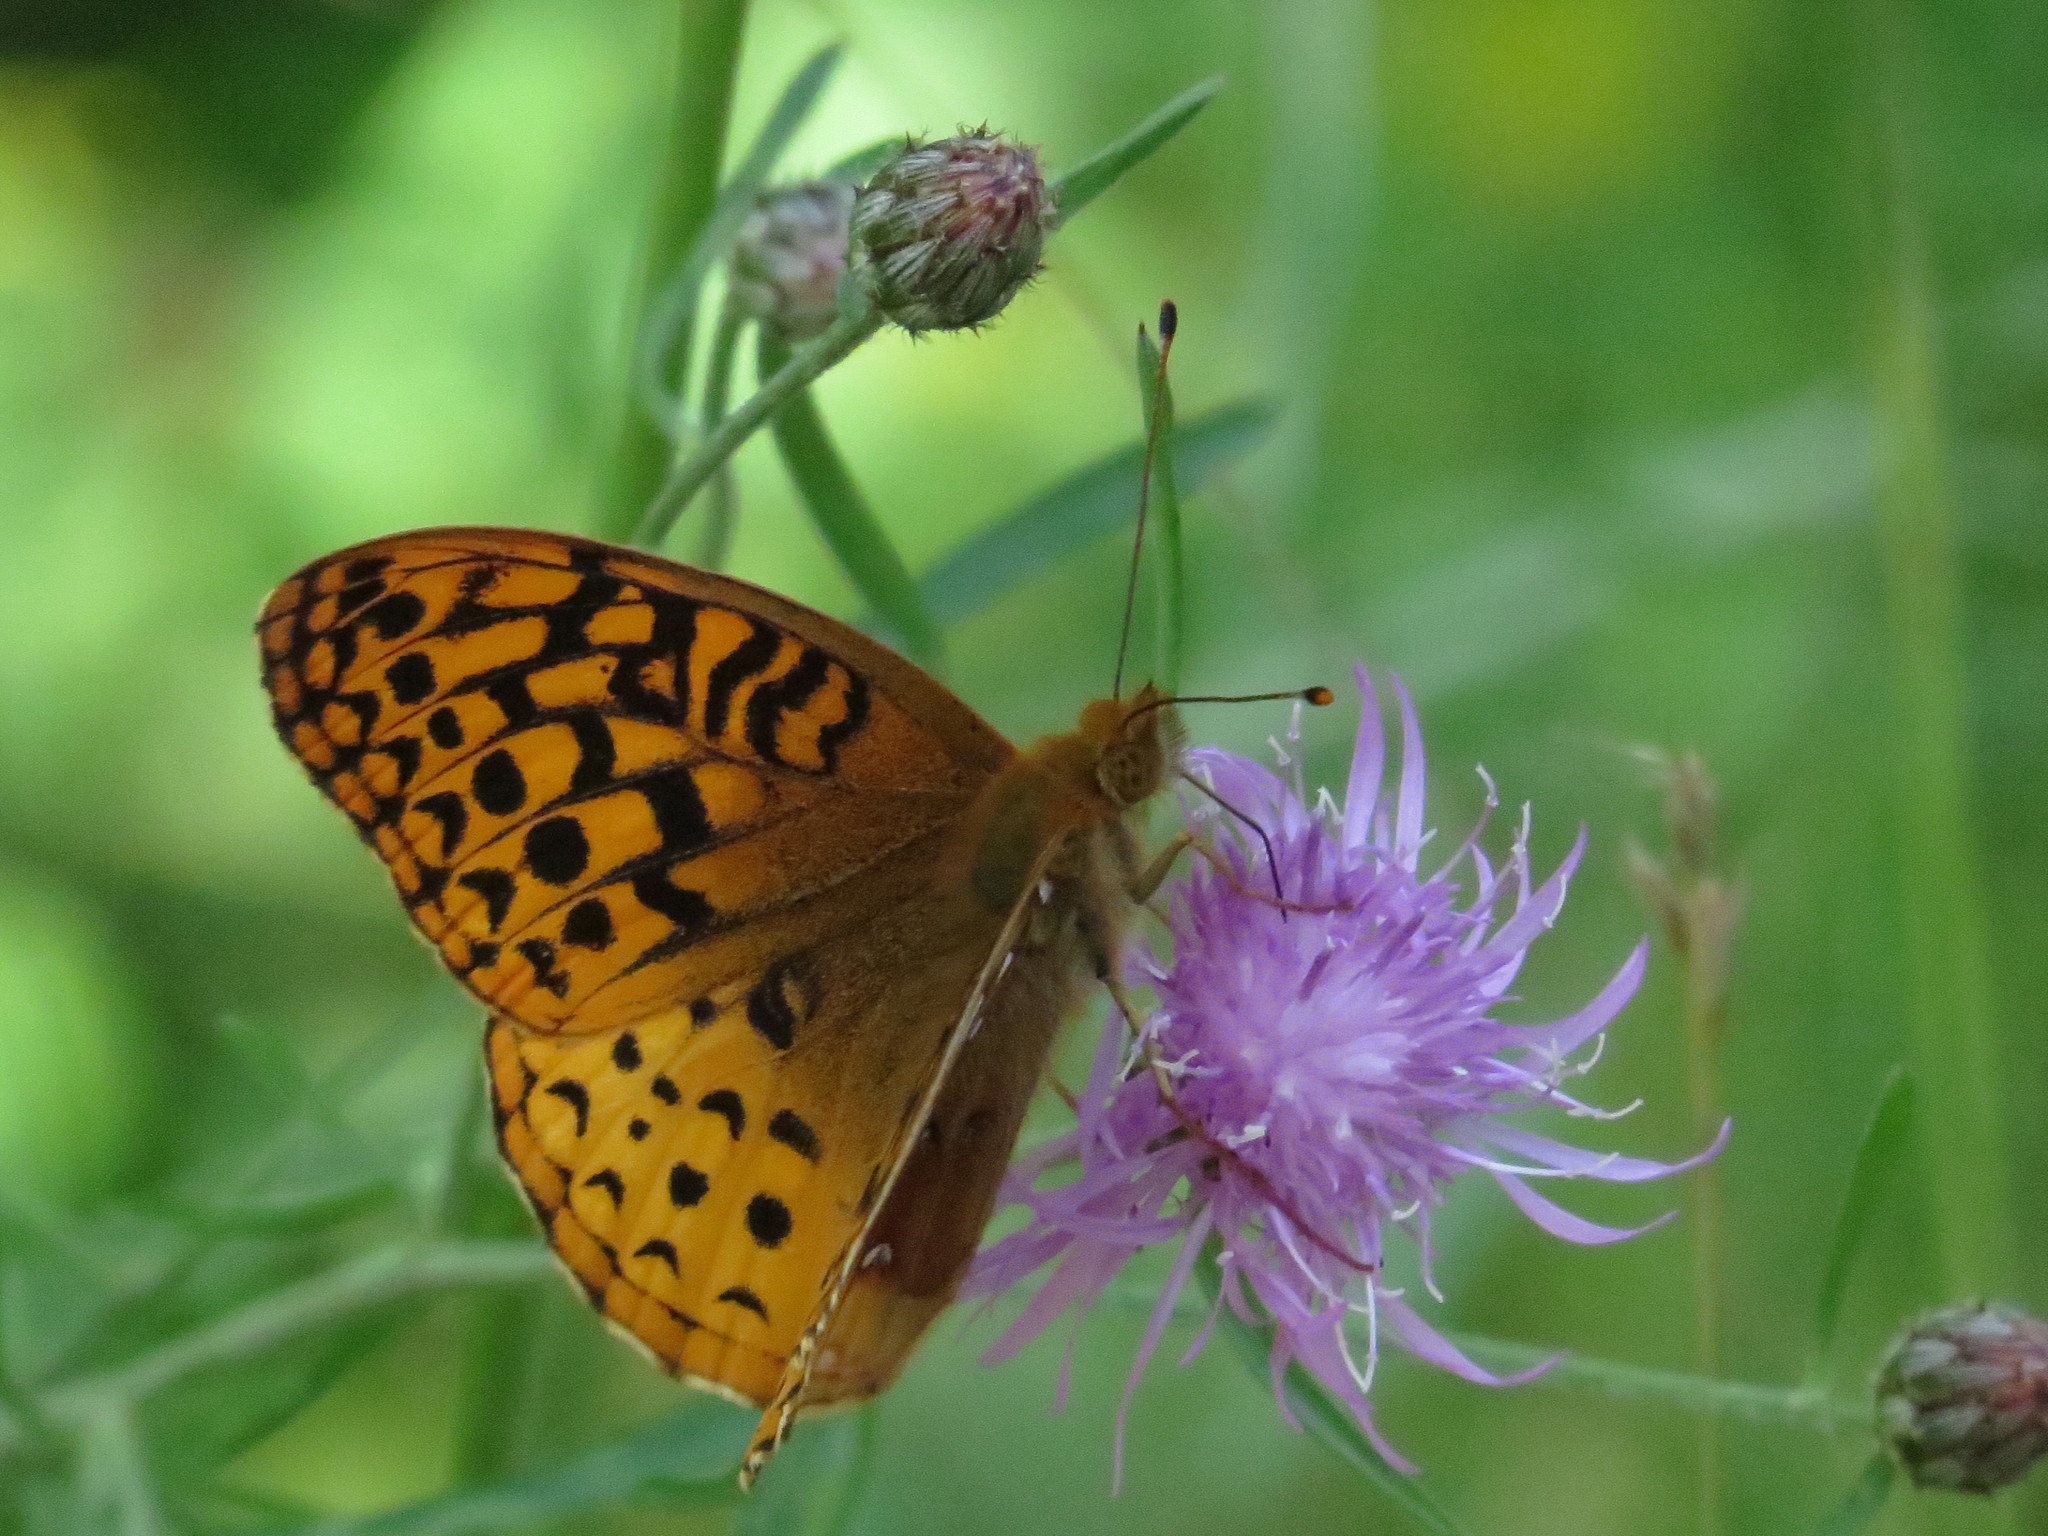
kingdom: Animalia
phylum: Arthropoda
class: Insecta
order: Lepidoptera
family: Nymphalidae
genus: Speyeria
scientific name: Speyeria aphrodite
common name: Aphrodite friitllary
